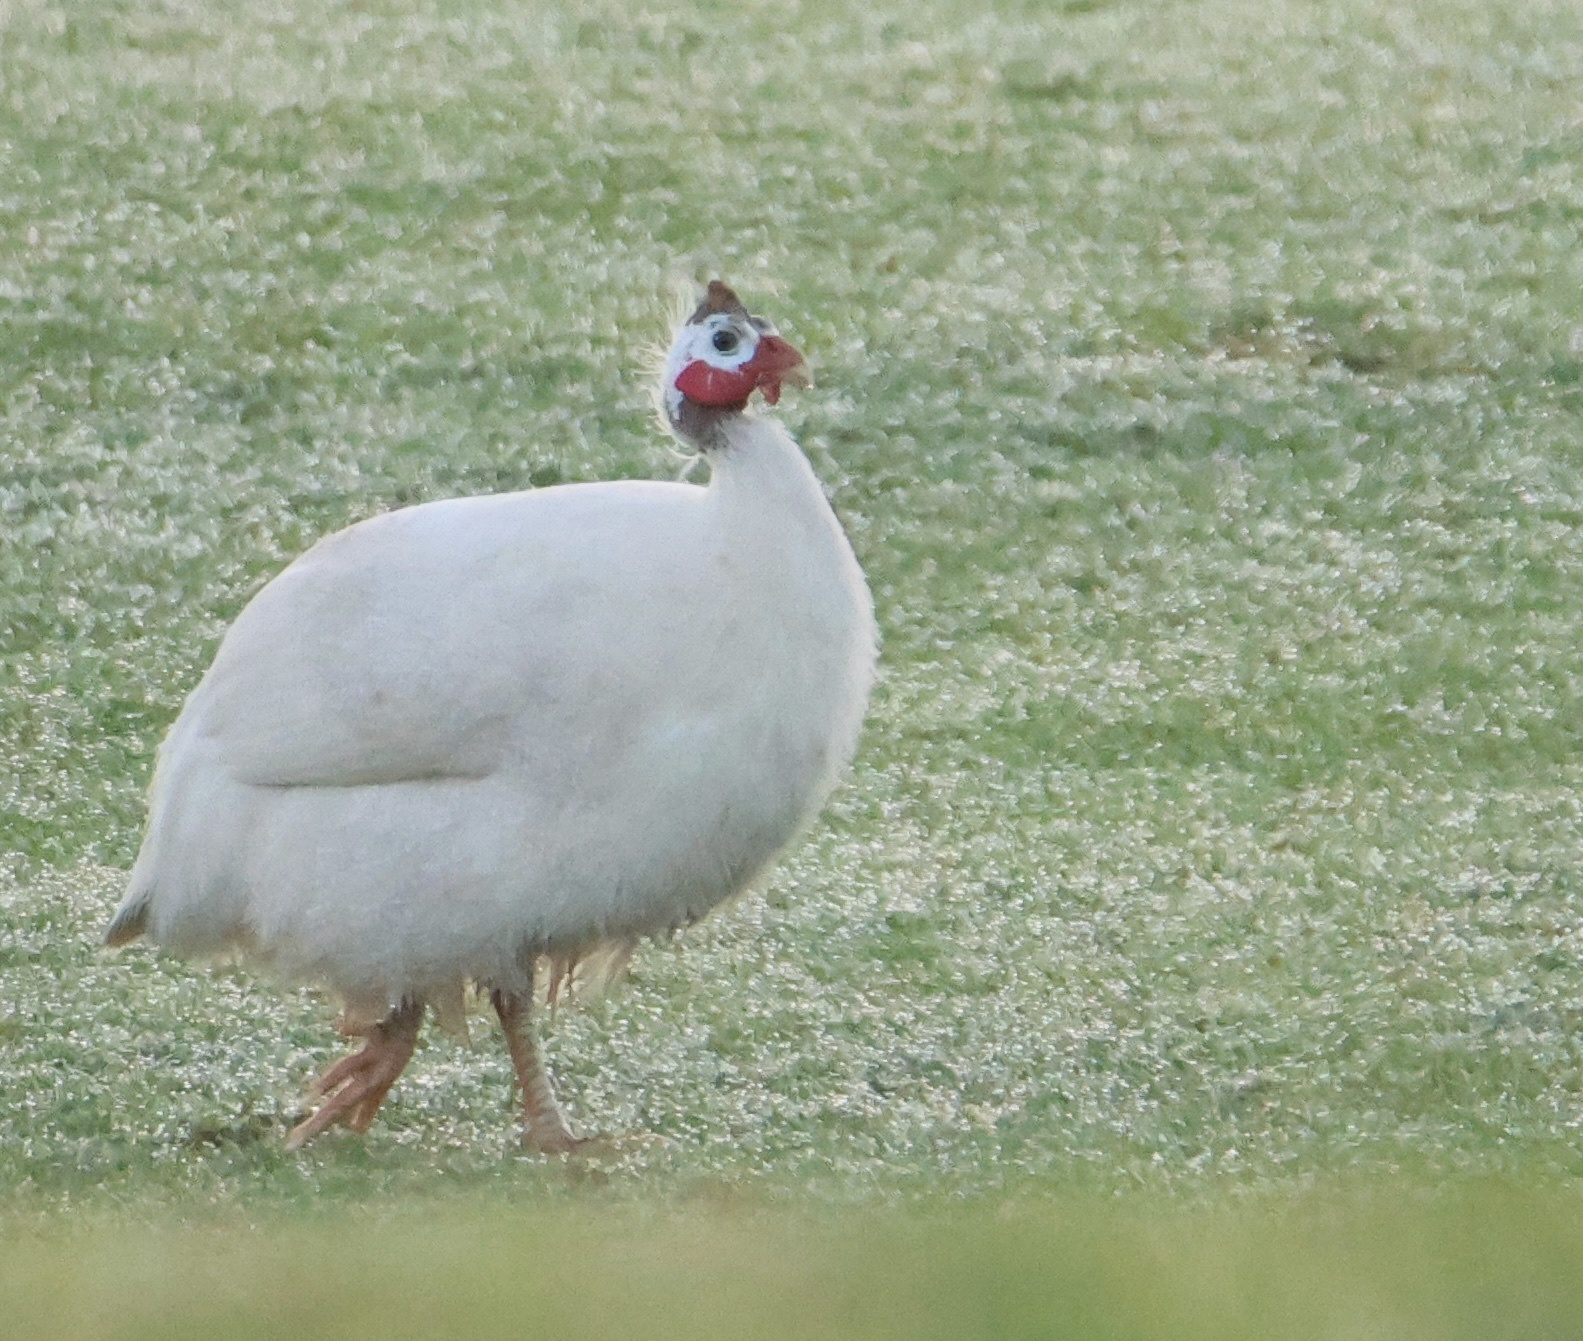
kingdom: Animalia
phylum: Chordata
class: Aves
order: Galliformes
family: Numididae
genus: Numida
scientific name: Numida meleagris
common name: Helmeted guineafowl
